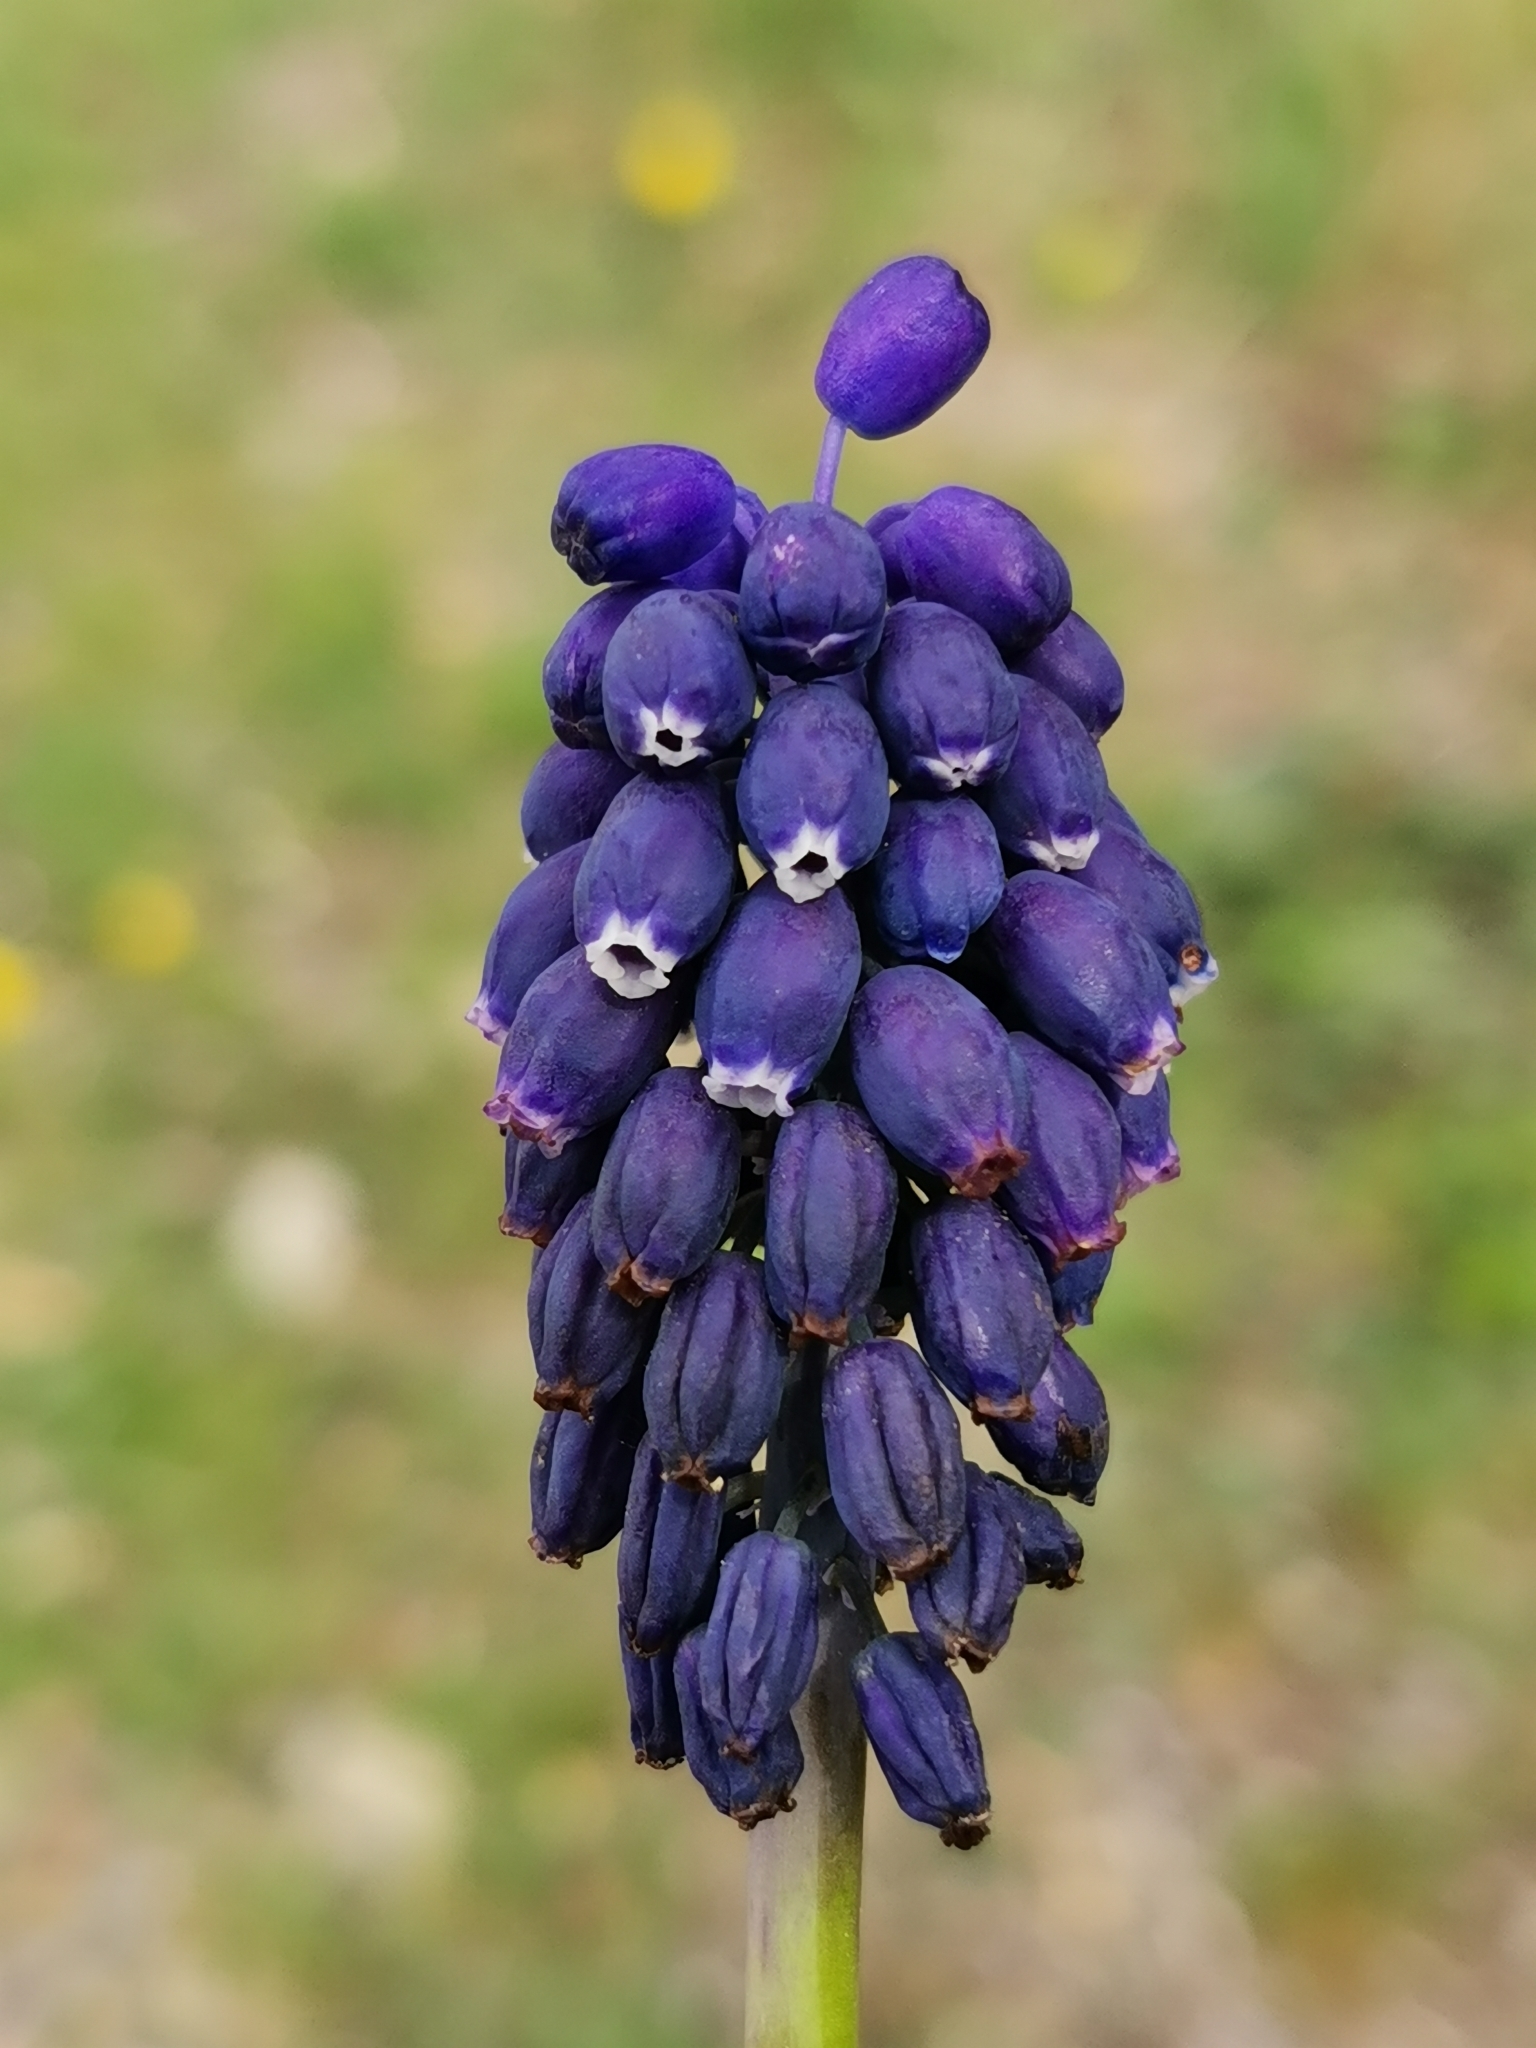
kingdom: Plantae
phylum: Tracheophyta
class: Liliopsida
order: Asparagales
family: Asparagaceae
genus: Muscari
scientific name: Muscari neglectum
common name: Grape-hyacinth
